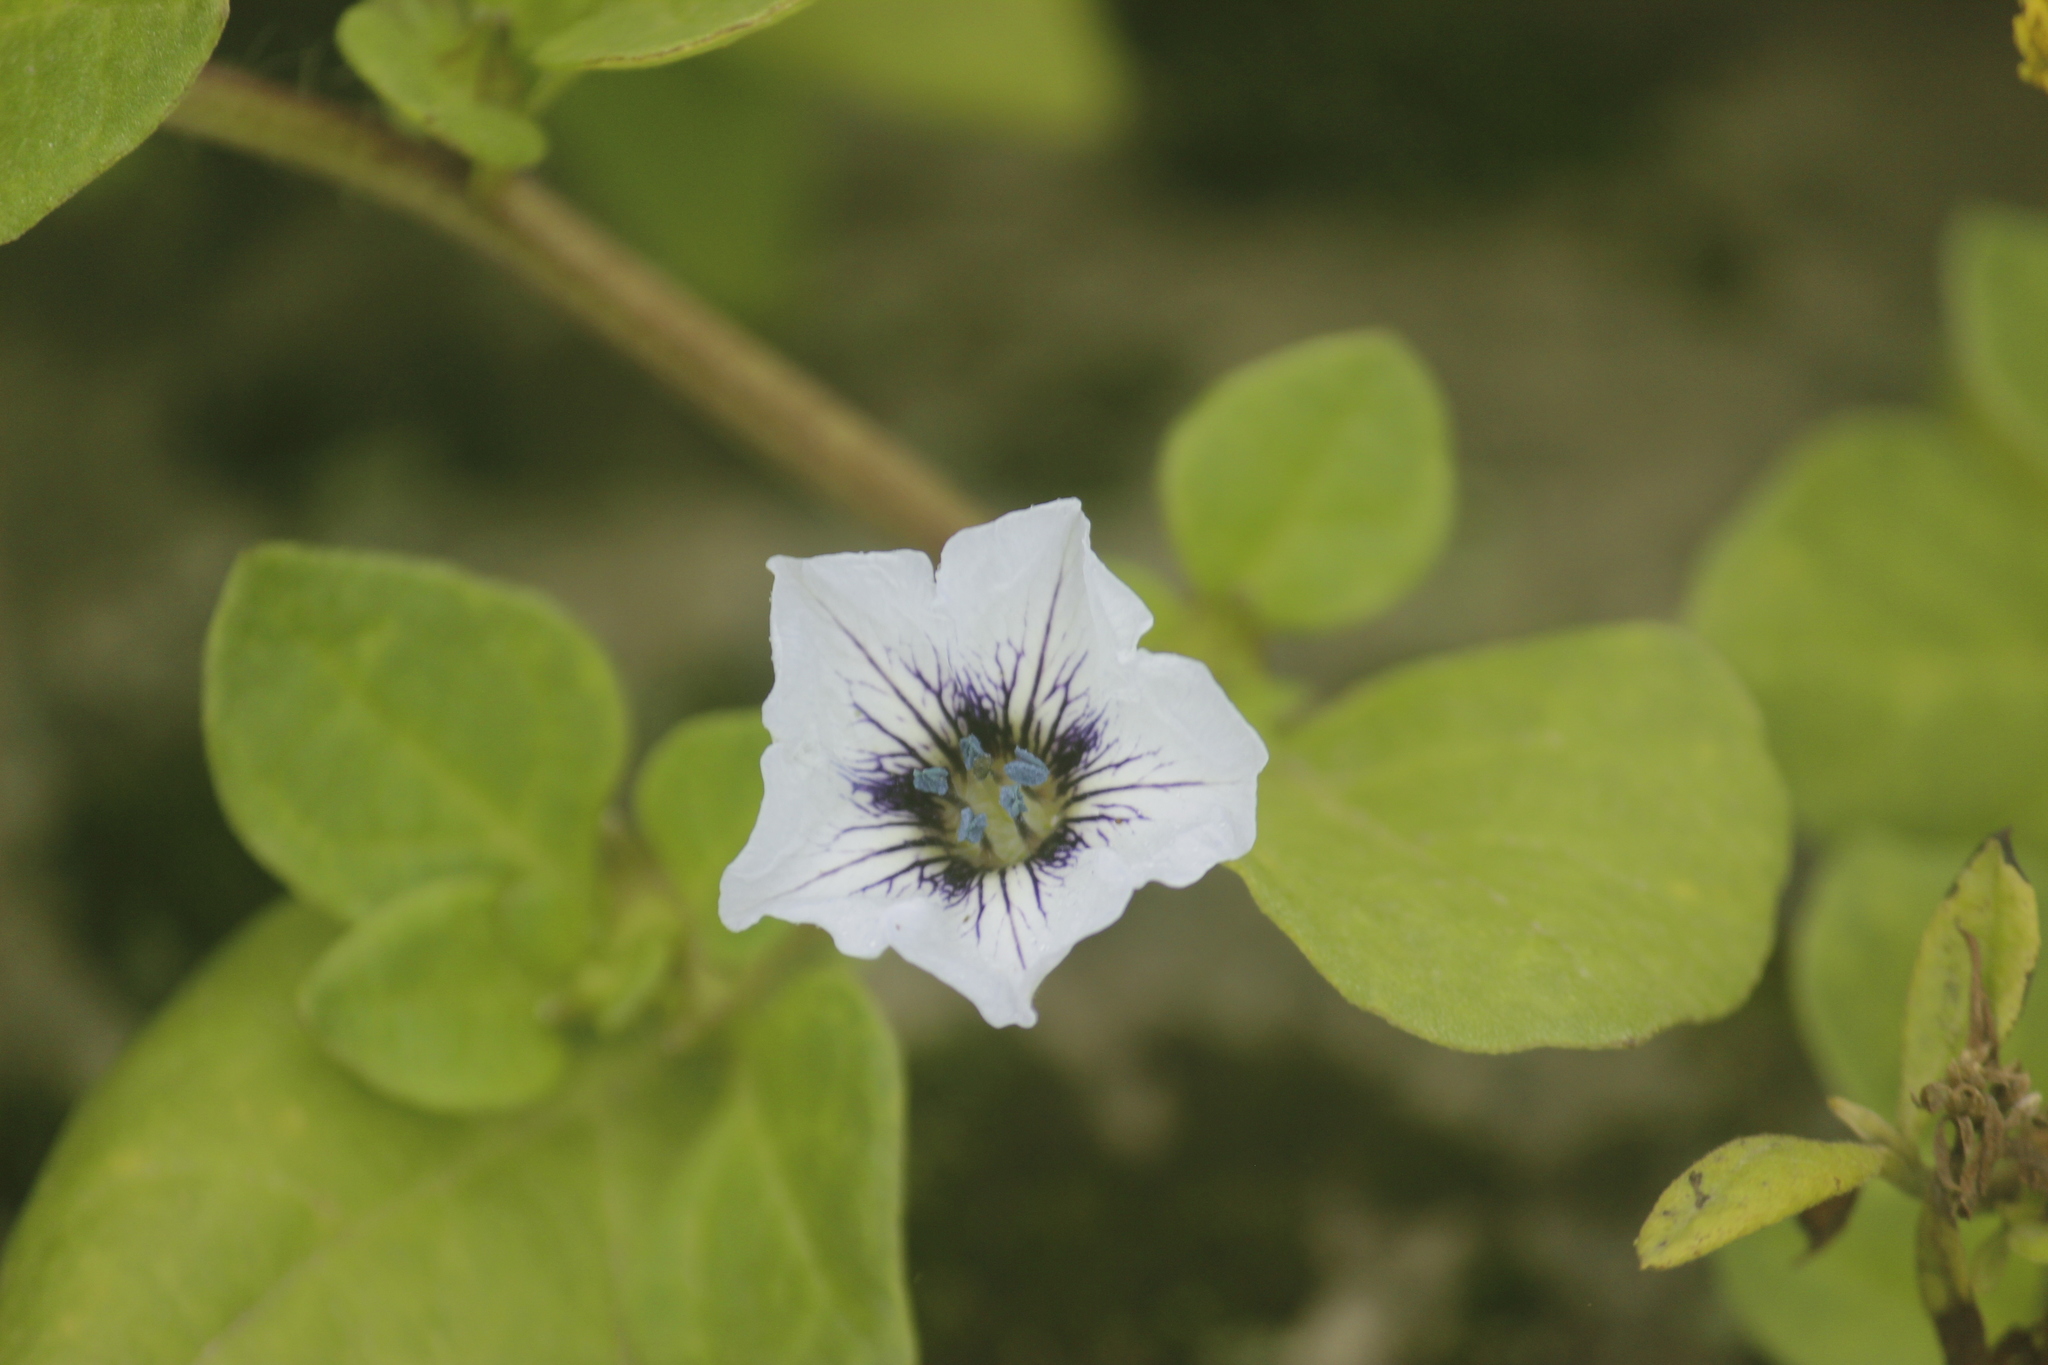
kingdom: Plantae
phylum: Tracheophyta
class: Magnoliopsida
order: Solanales
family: Solanaceae
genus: Nolana
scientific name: Nolana humifusa
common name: Trailing chilean-bellflower
